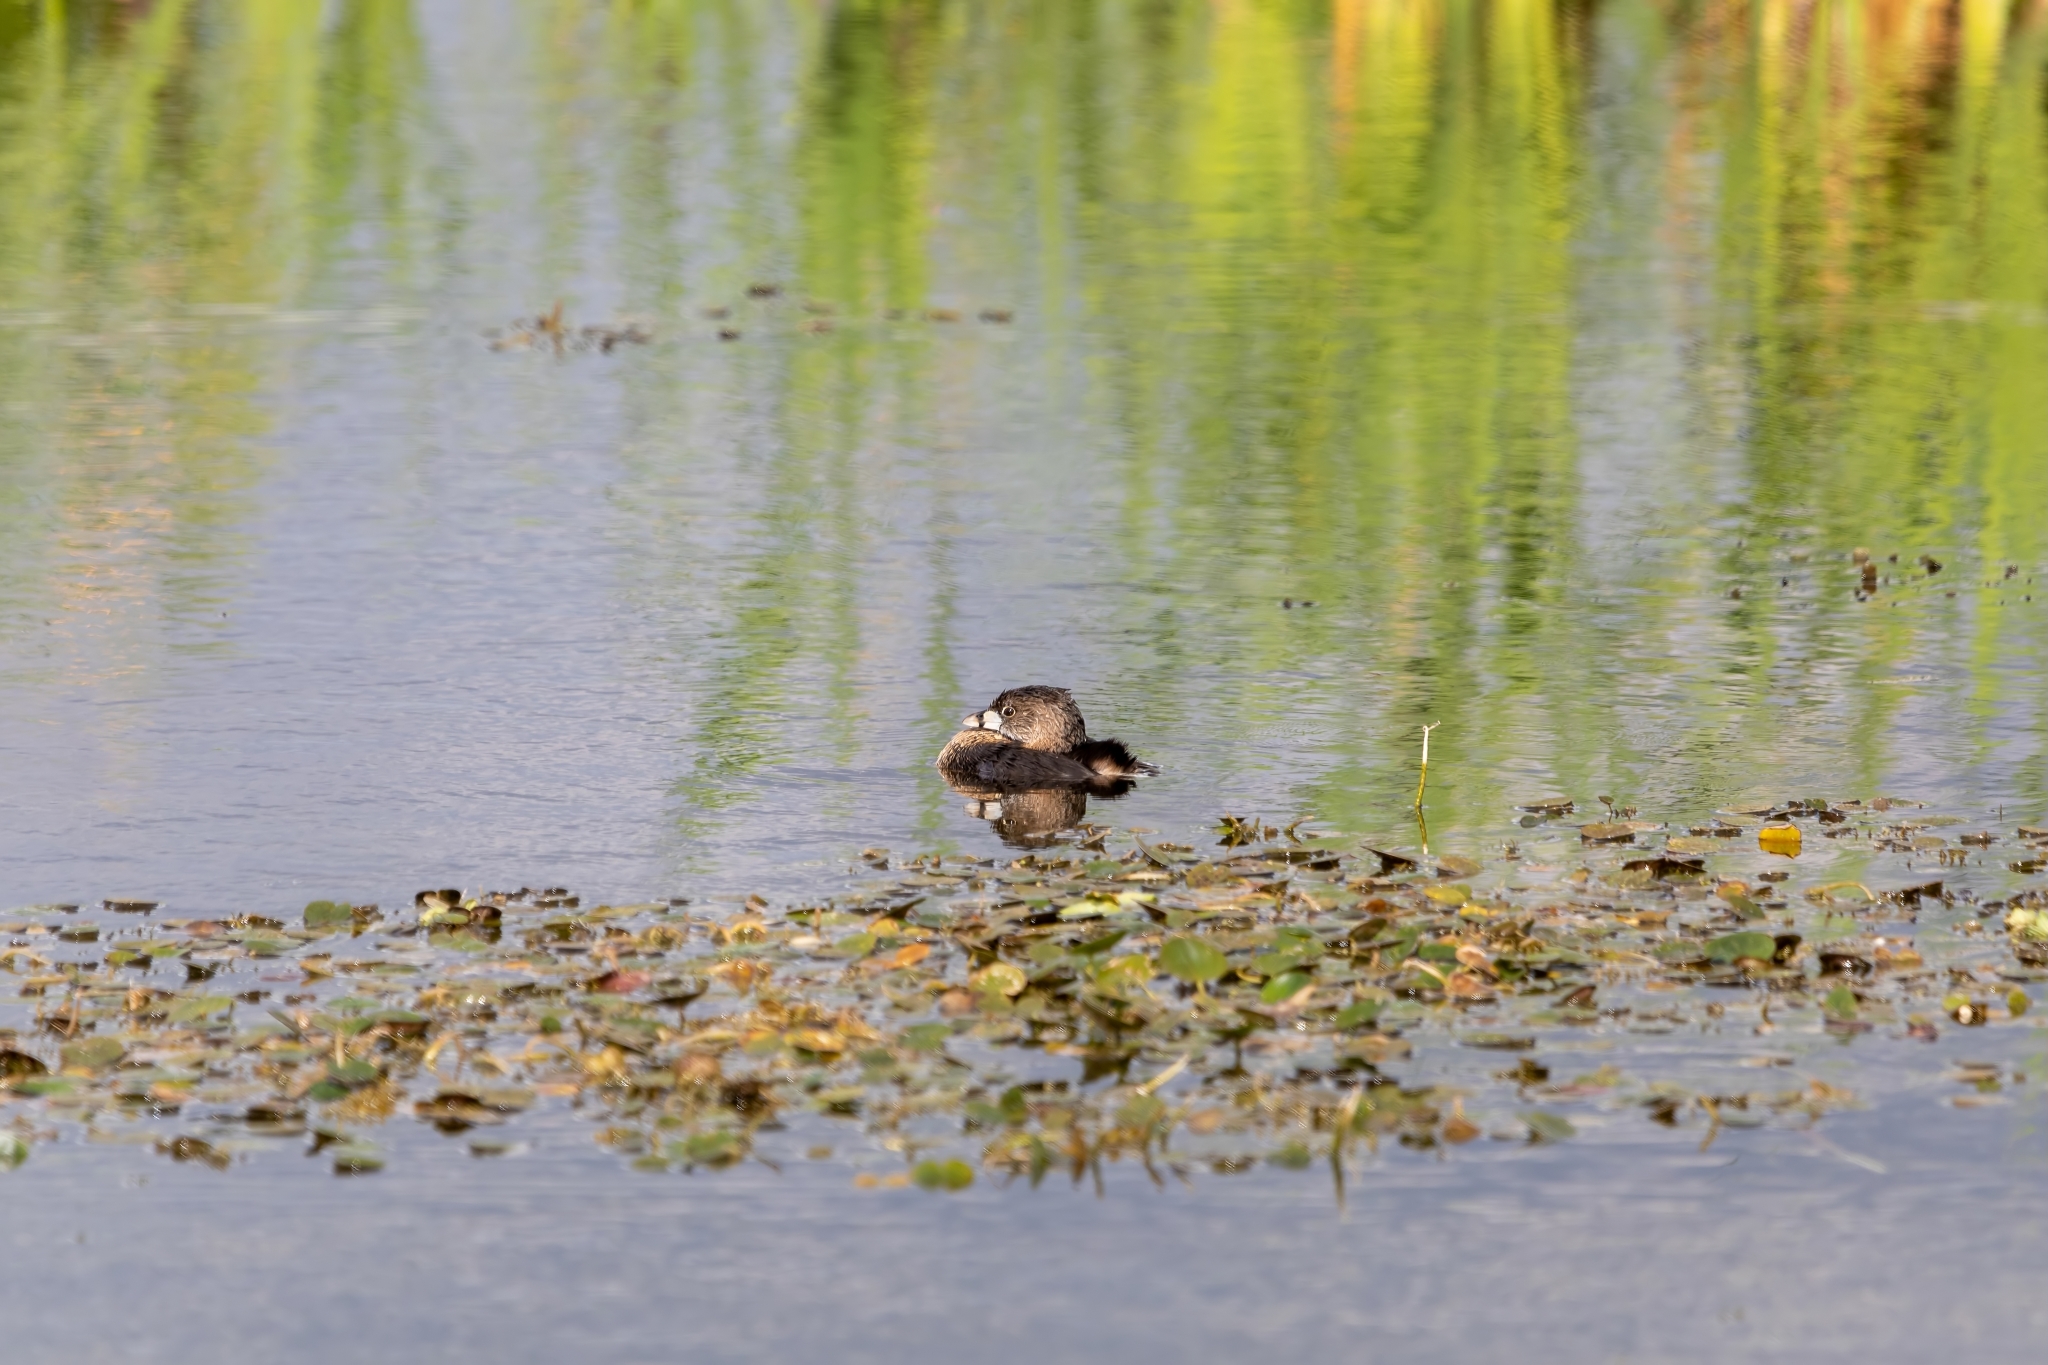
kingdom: Animalia
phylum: Chordata
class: Aves
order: Podicipediformes
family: Podicipedidae
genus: Podilymbus
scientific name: Podilymbus podiceps
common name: Pied-billed grebe
